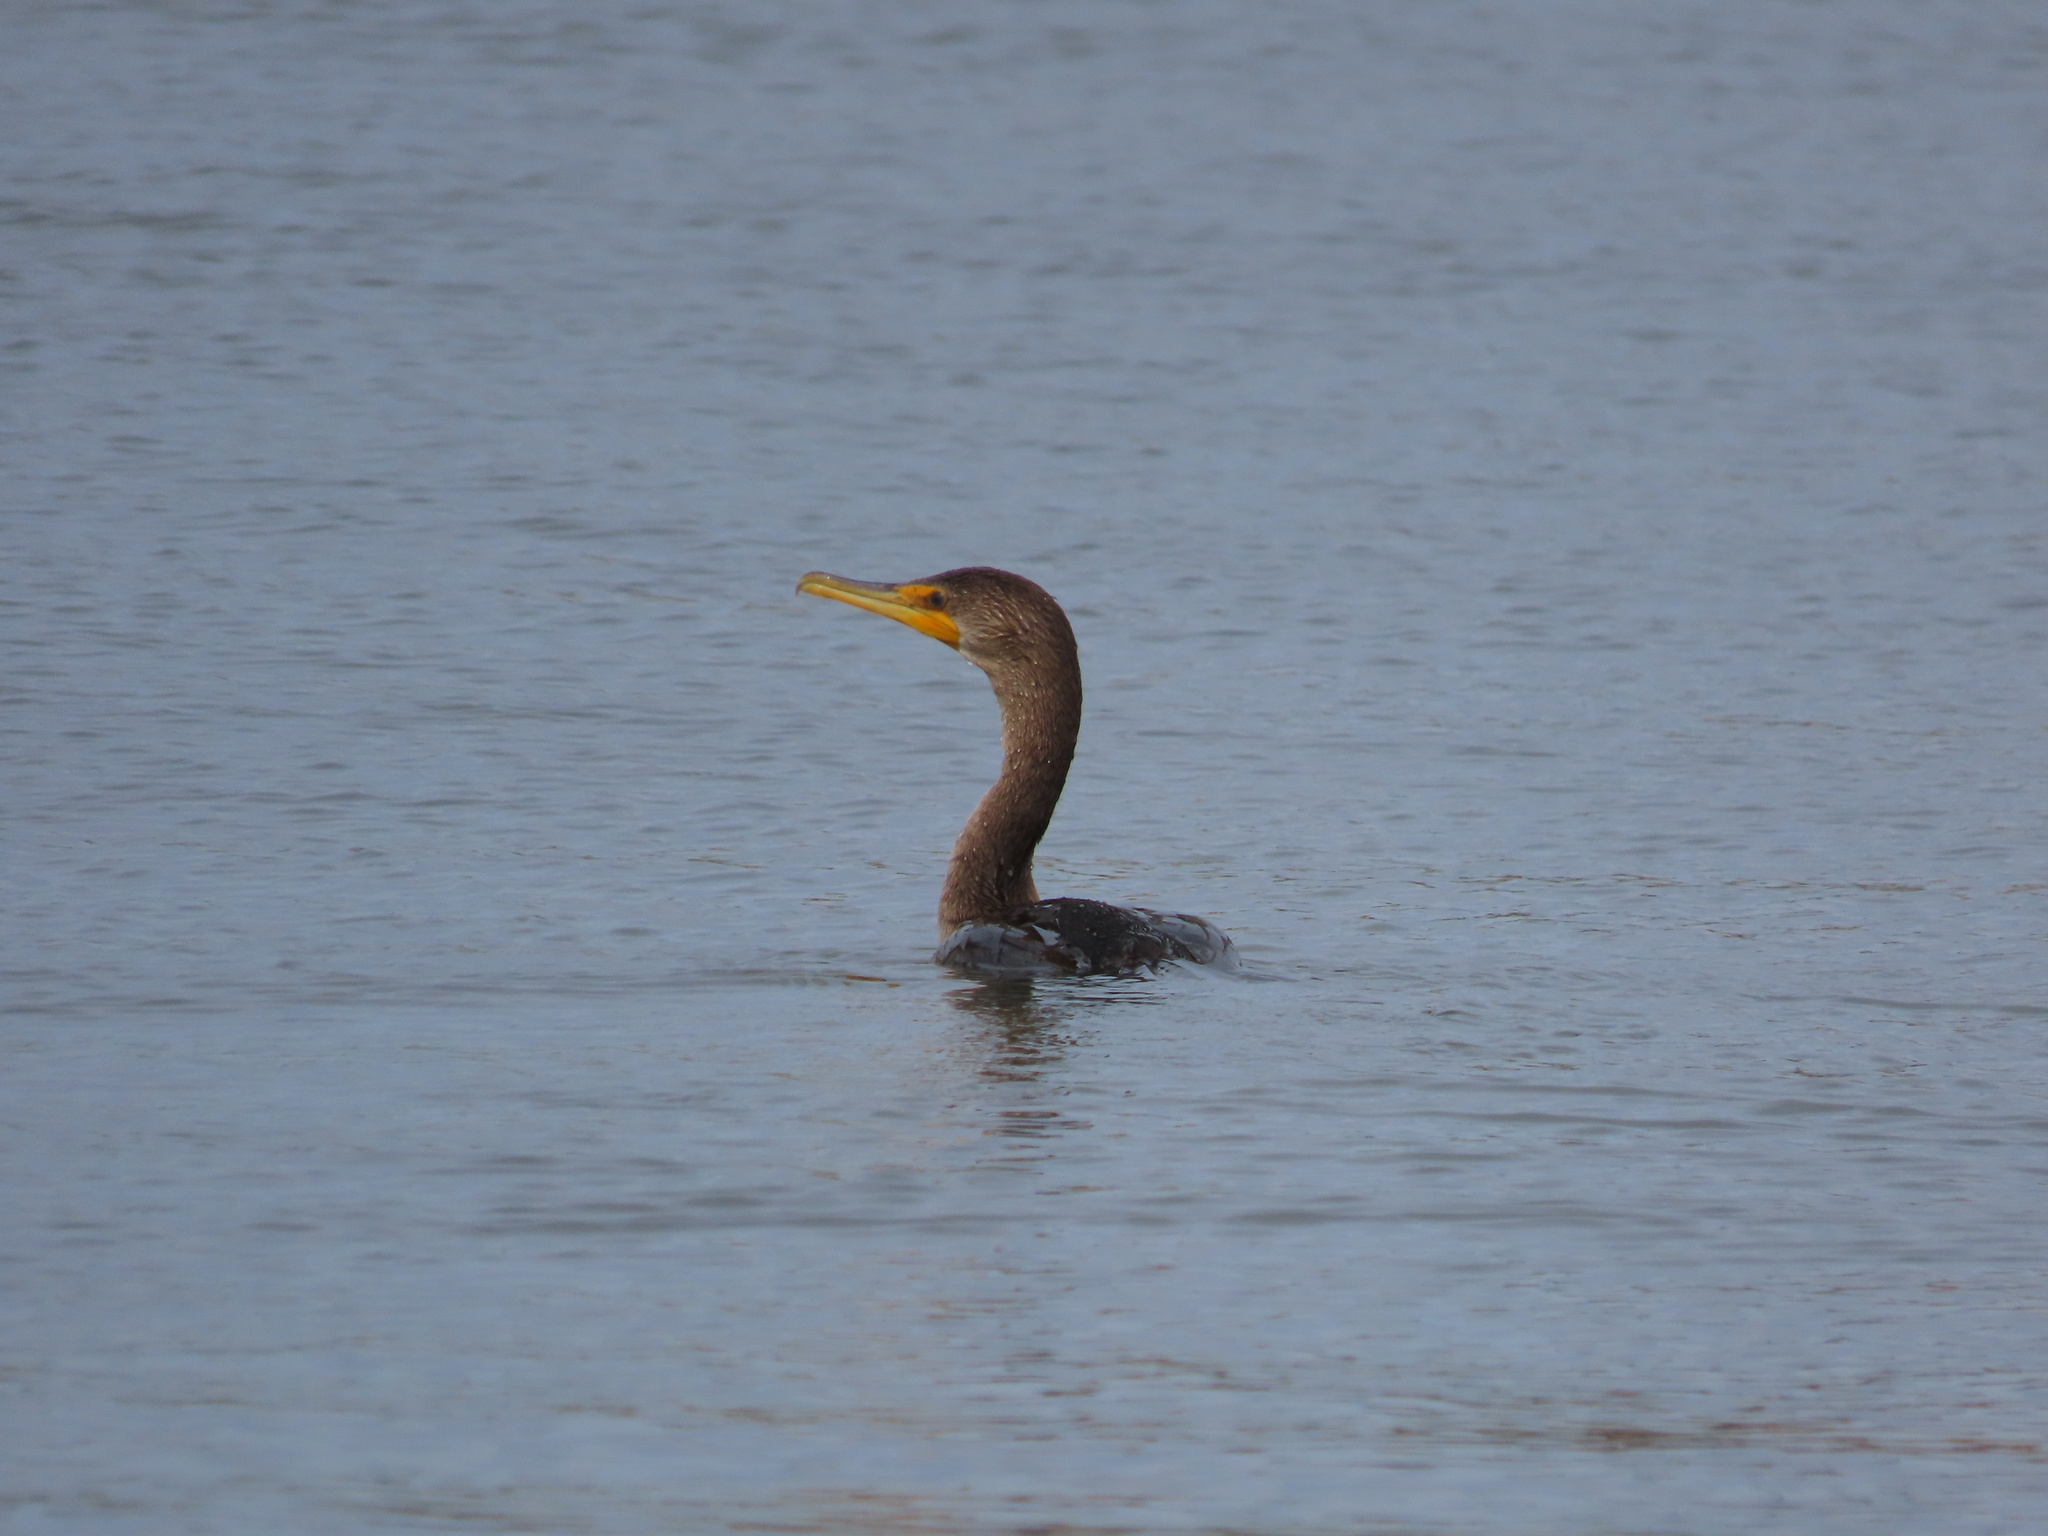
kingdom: Animalia
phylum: Chordata
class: Aves
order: Suliformes
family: Phalacrocoracidae
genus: Phalacrocorax
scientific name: Phalacrocorax auritus
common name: Double-crested cormorant
